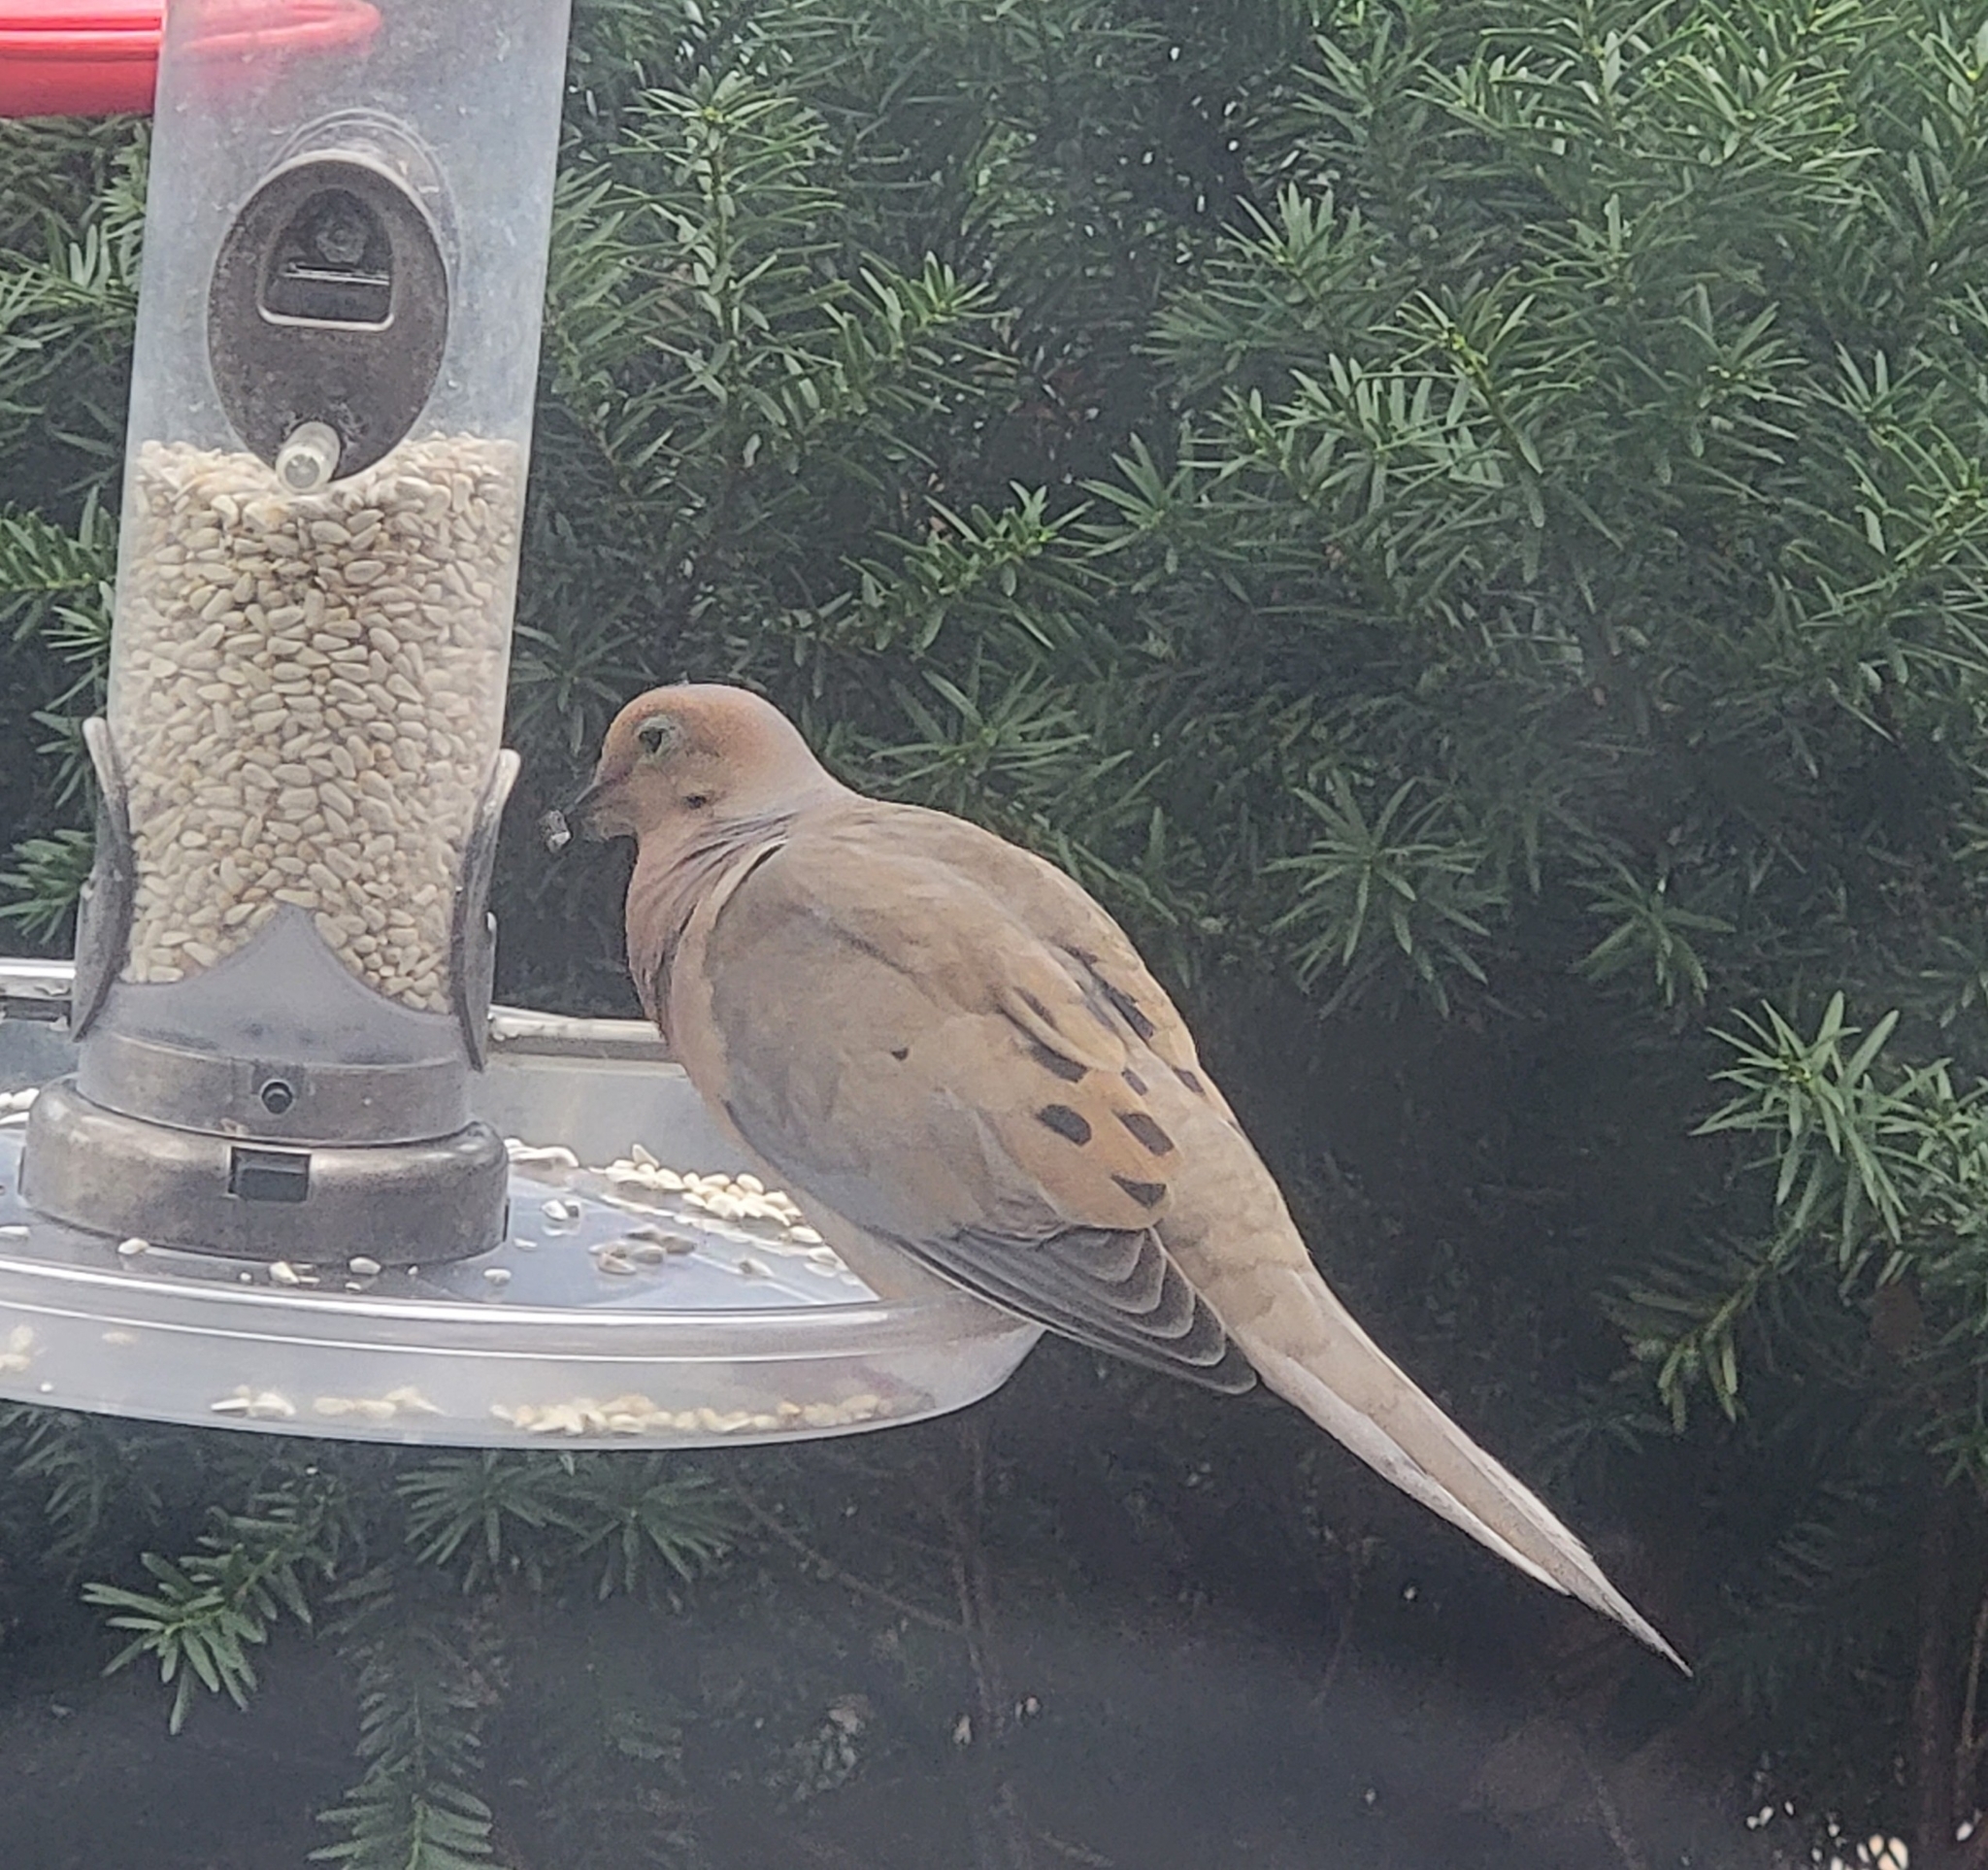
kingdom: Animalia
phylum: Chordata
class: Aves
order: Columbiformes
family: Columbidae
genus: Zenaida
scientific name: Zenaida macroura
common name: Mourning dove
